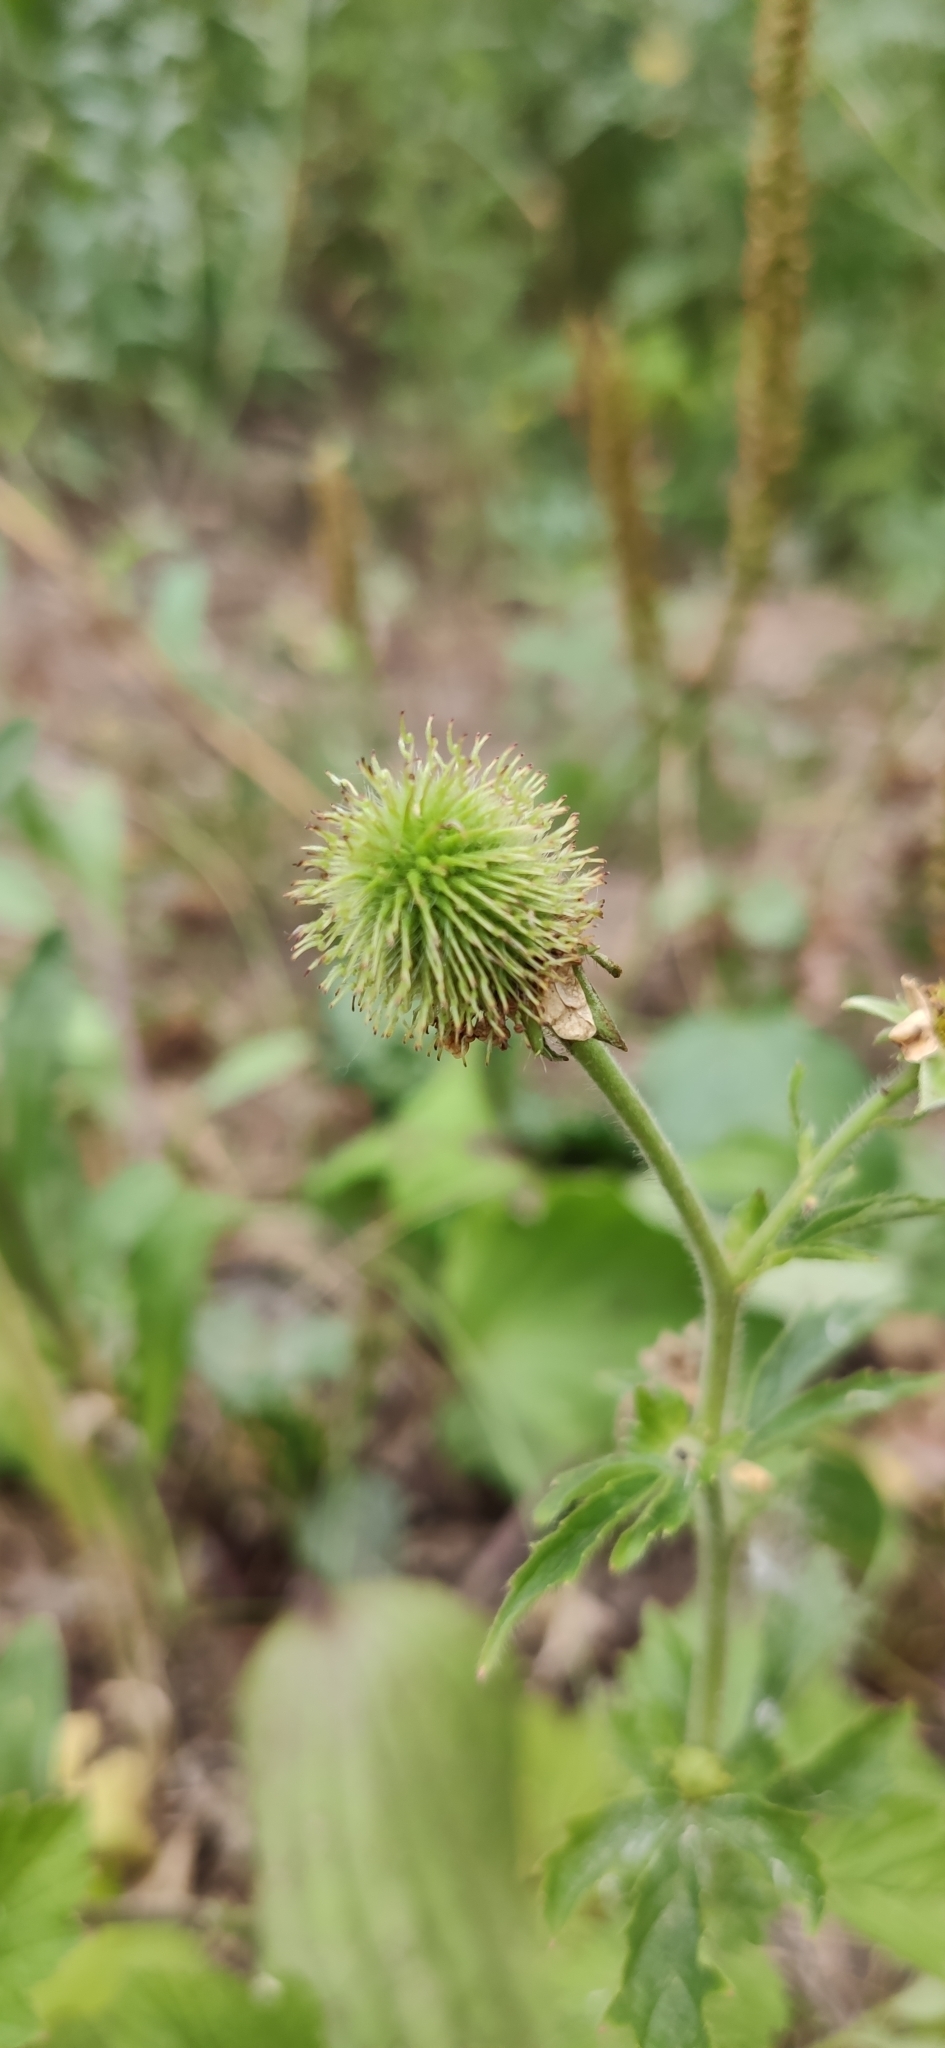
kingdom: Plantae
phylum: Tracheophyta
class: Magnoliopsida
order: Rosales
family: Rosaceae
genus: Geum
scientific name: Geum aleppicum
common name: Yellow avens
